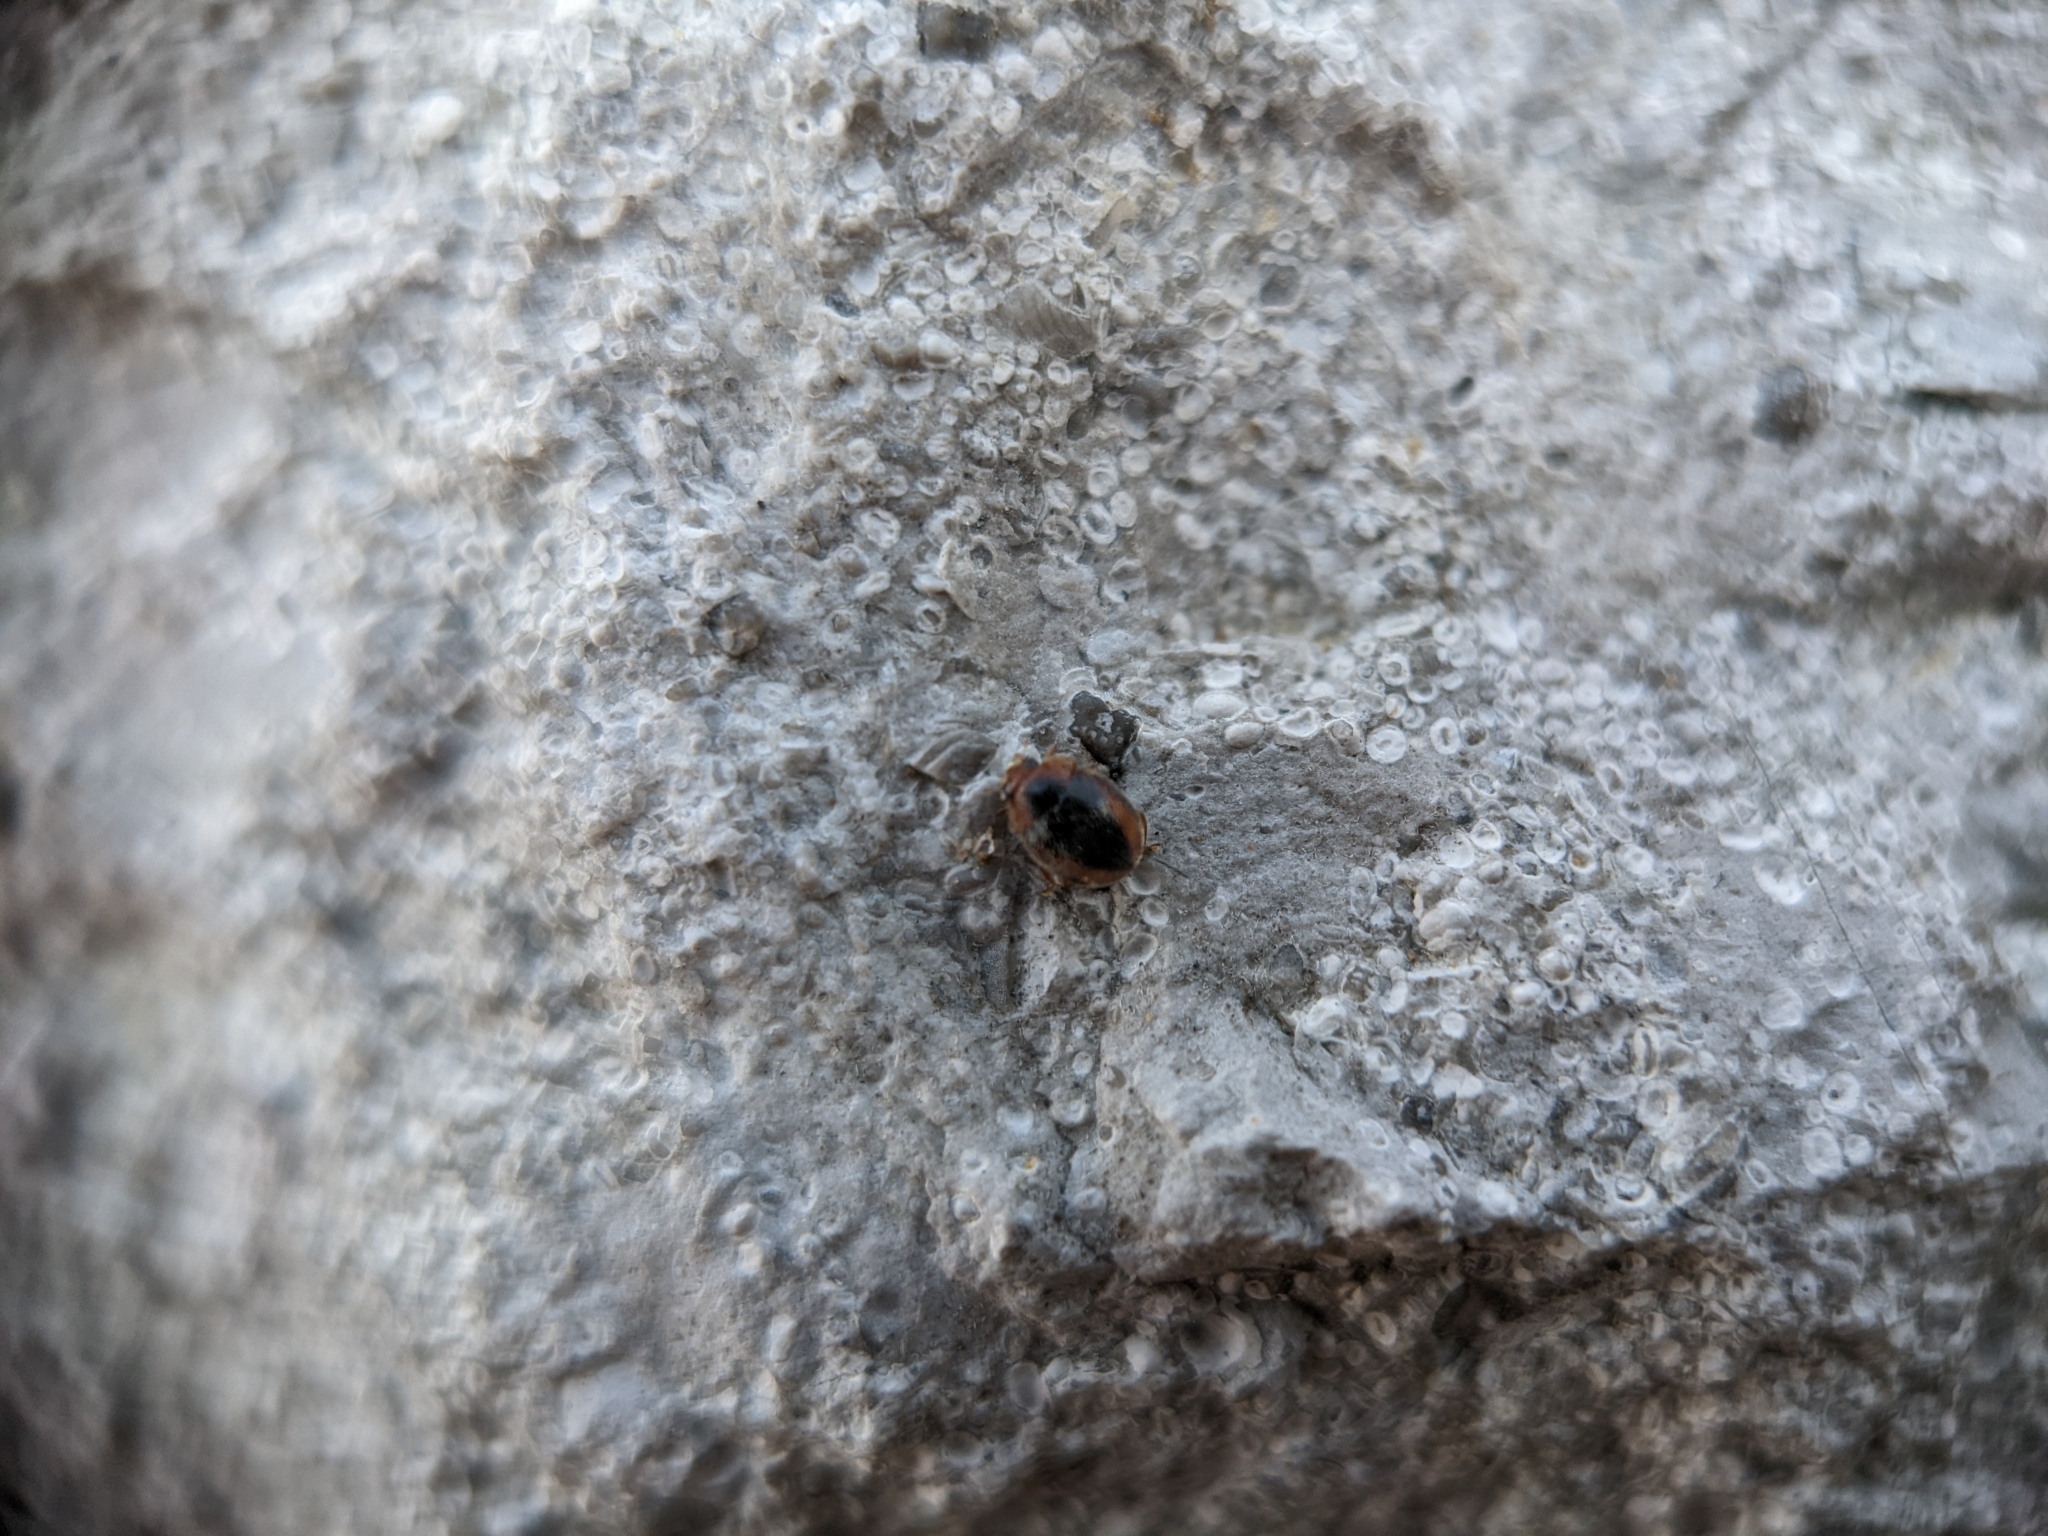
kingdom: Animalia
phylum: Arthropoda
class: Insecta
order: Coleoptera
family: Coccinellidae
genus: Scymnus
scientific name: Scymnus loewii
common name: Dusky lady beetle
